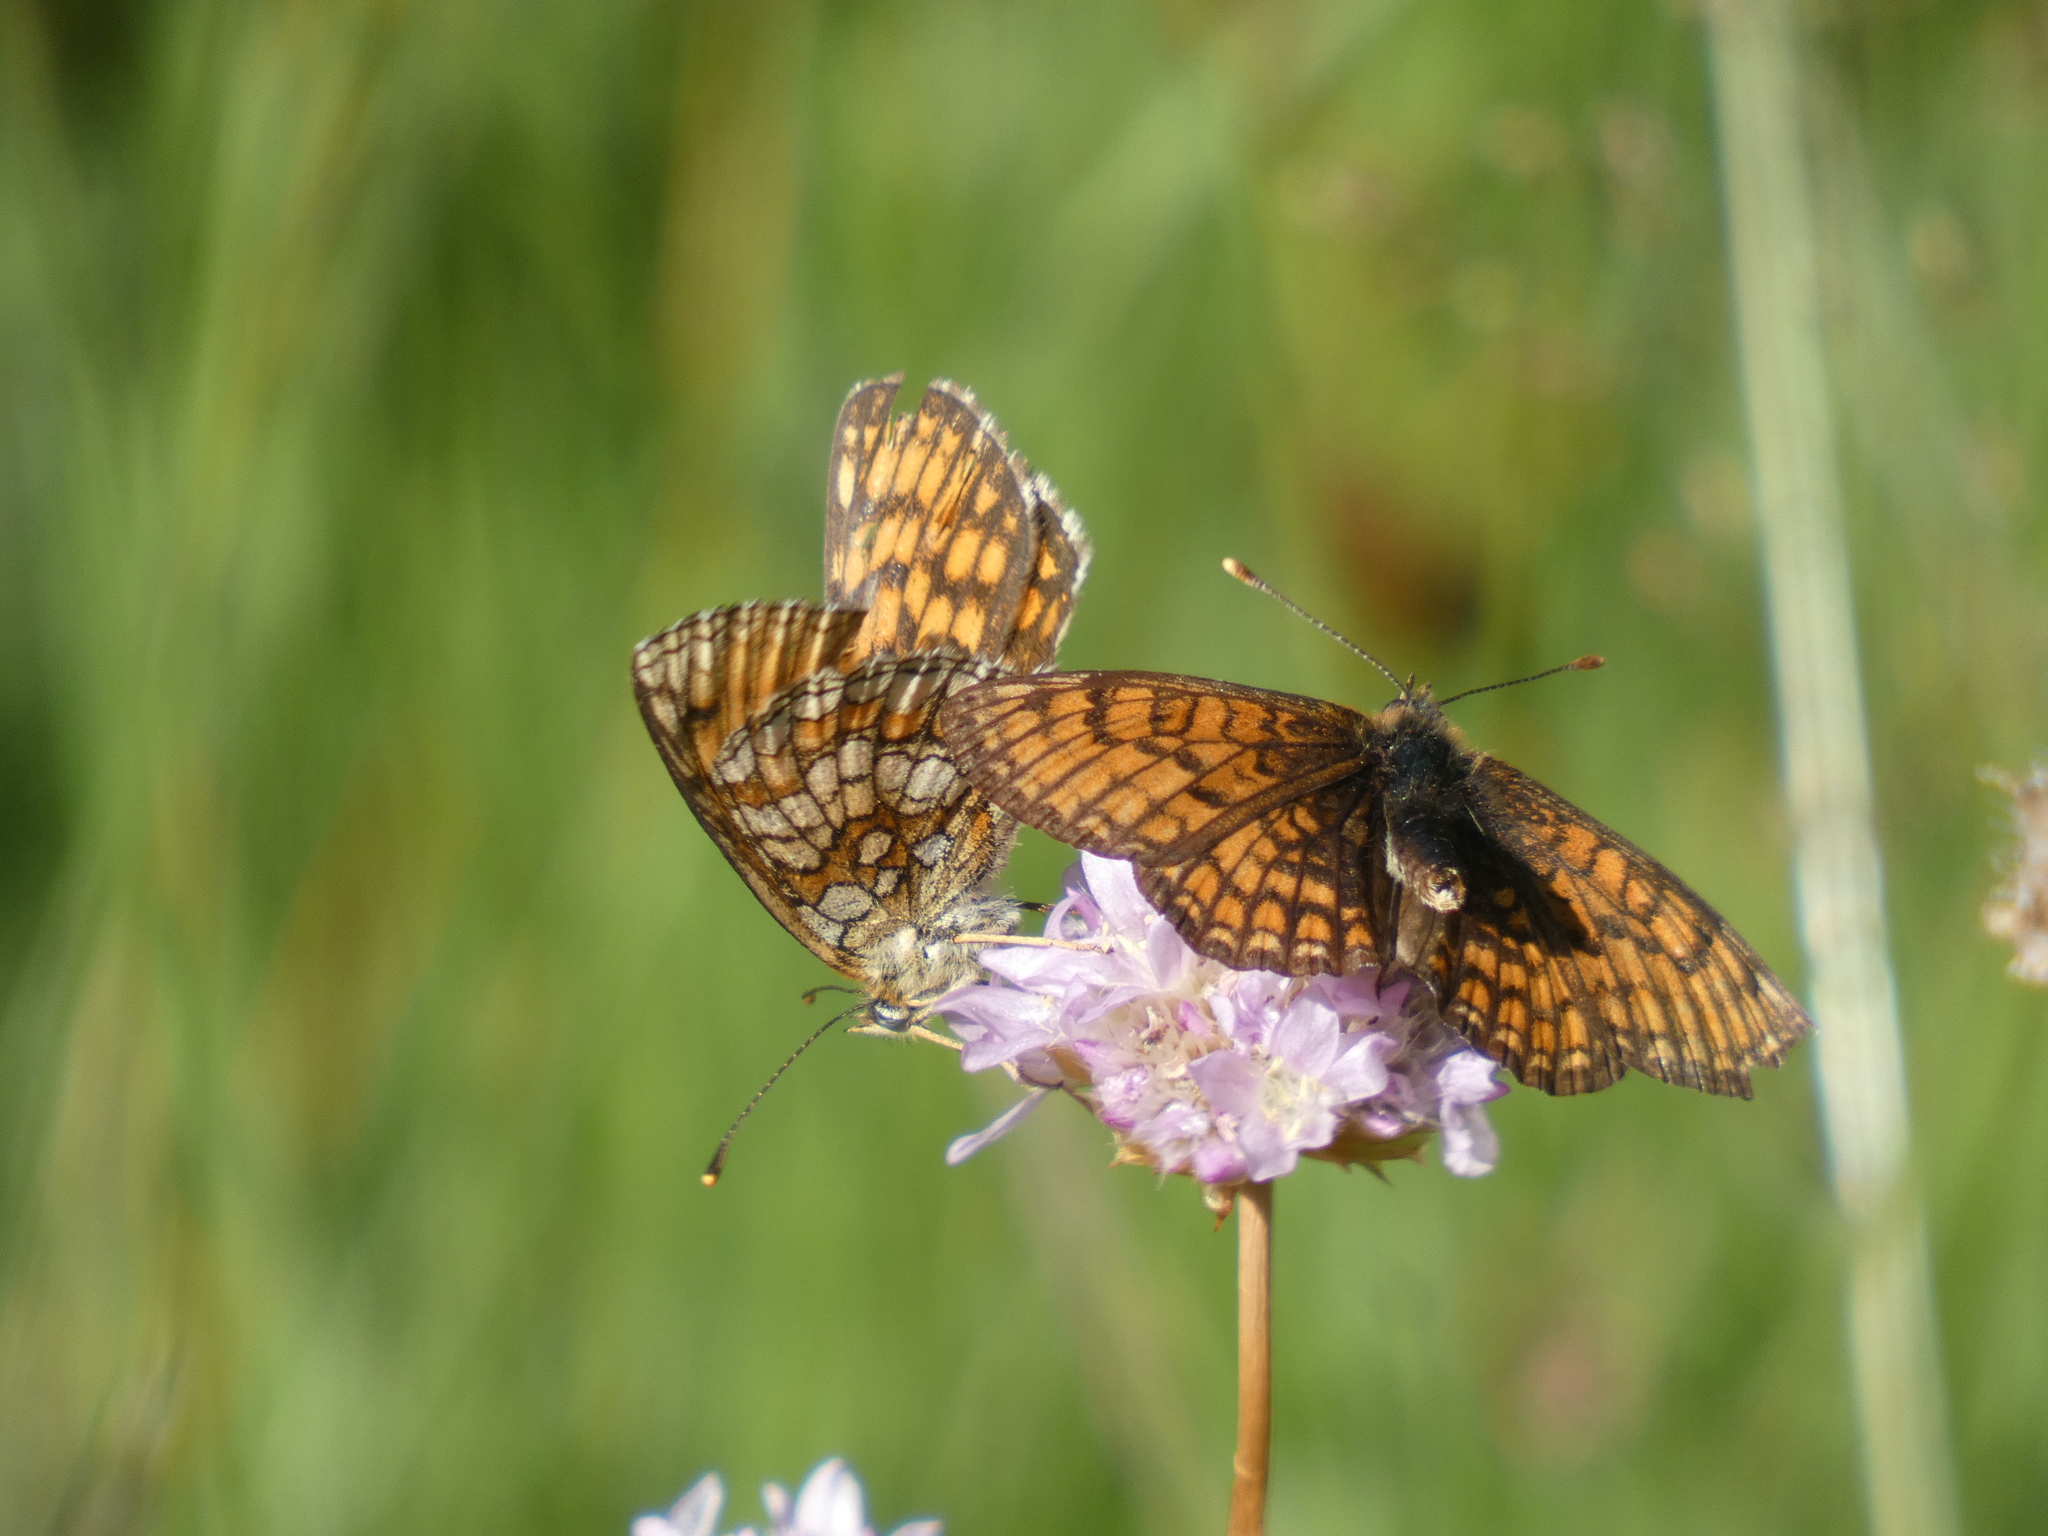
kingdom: Animalia
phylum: Arthropoda
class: Insecta
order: Lepidoptera
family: Nymphalidae
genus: Mellicta
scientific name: Mellicta parthenoides
